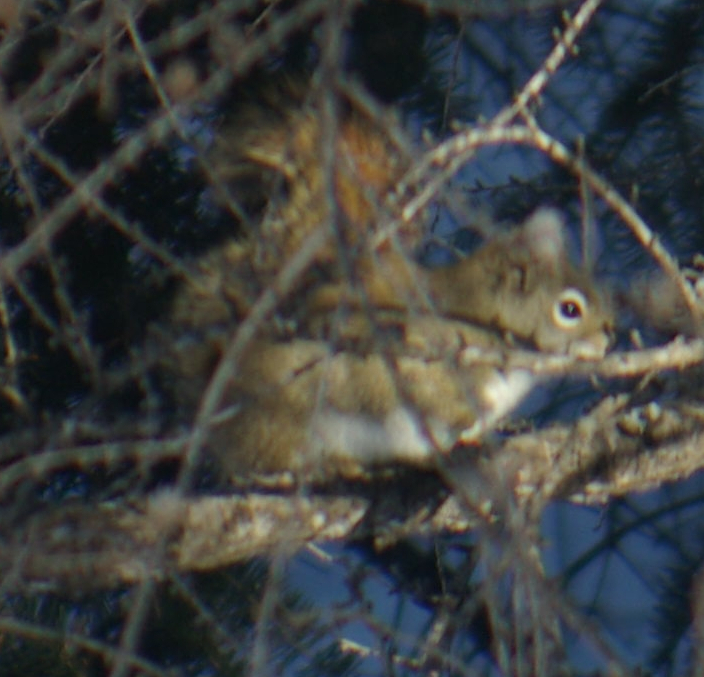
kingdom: Animalia
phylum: Chordata
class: Mammalia
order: Rodentia
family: Sciuridae
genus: Tamiasciurus
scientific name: Tamiasciurus hudsonicus
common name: Red squirrel
